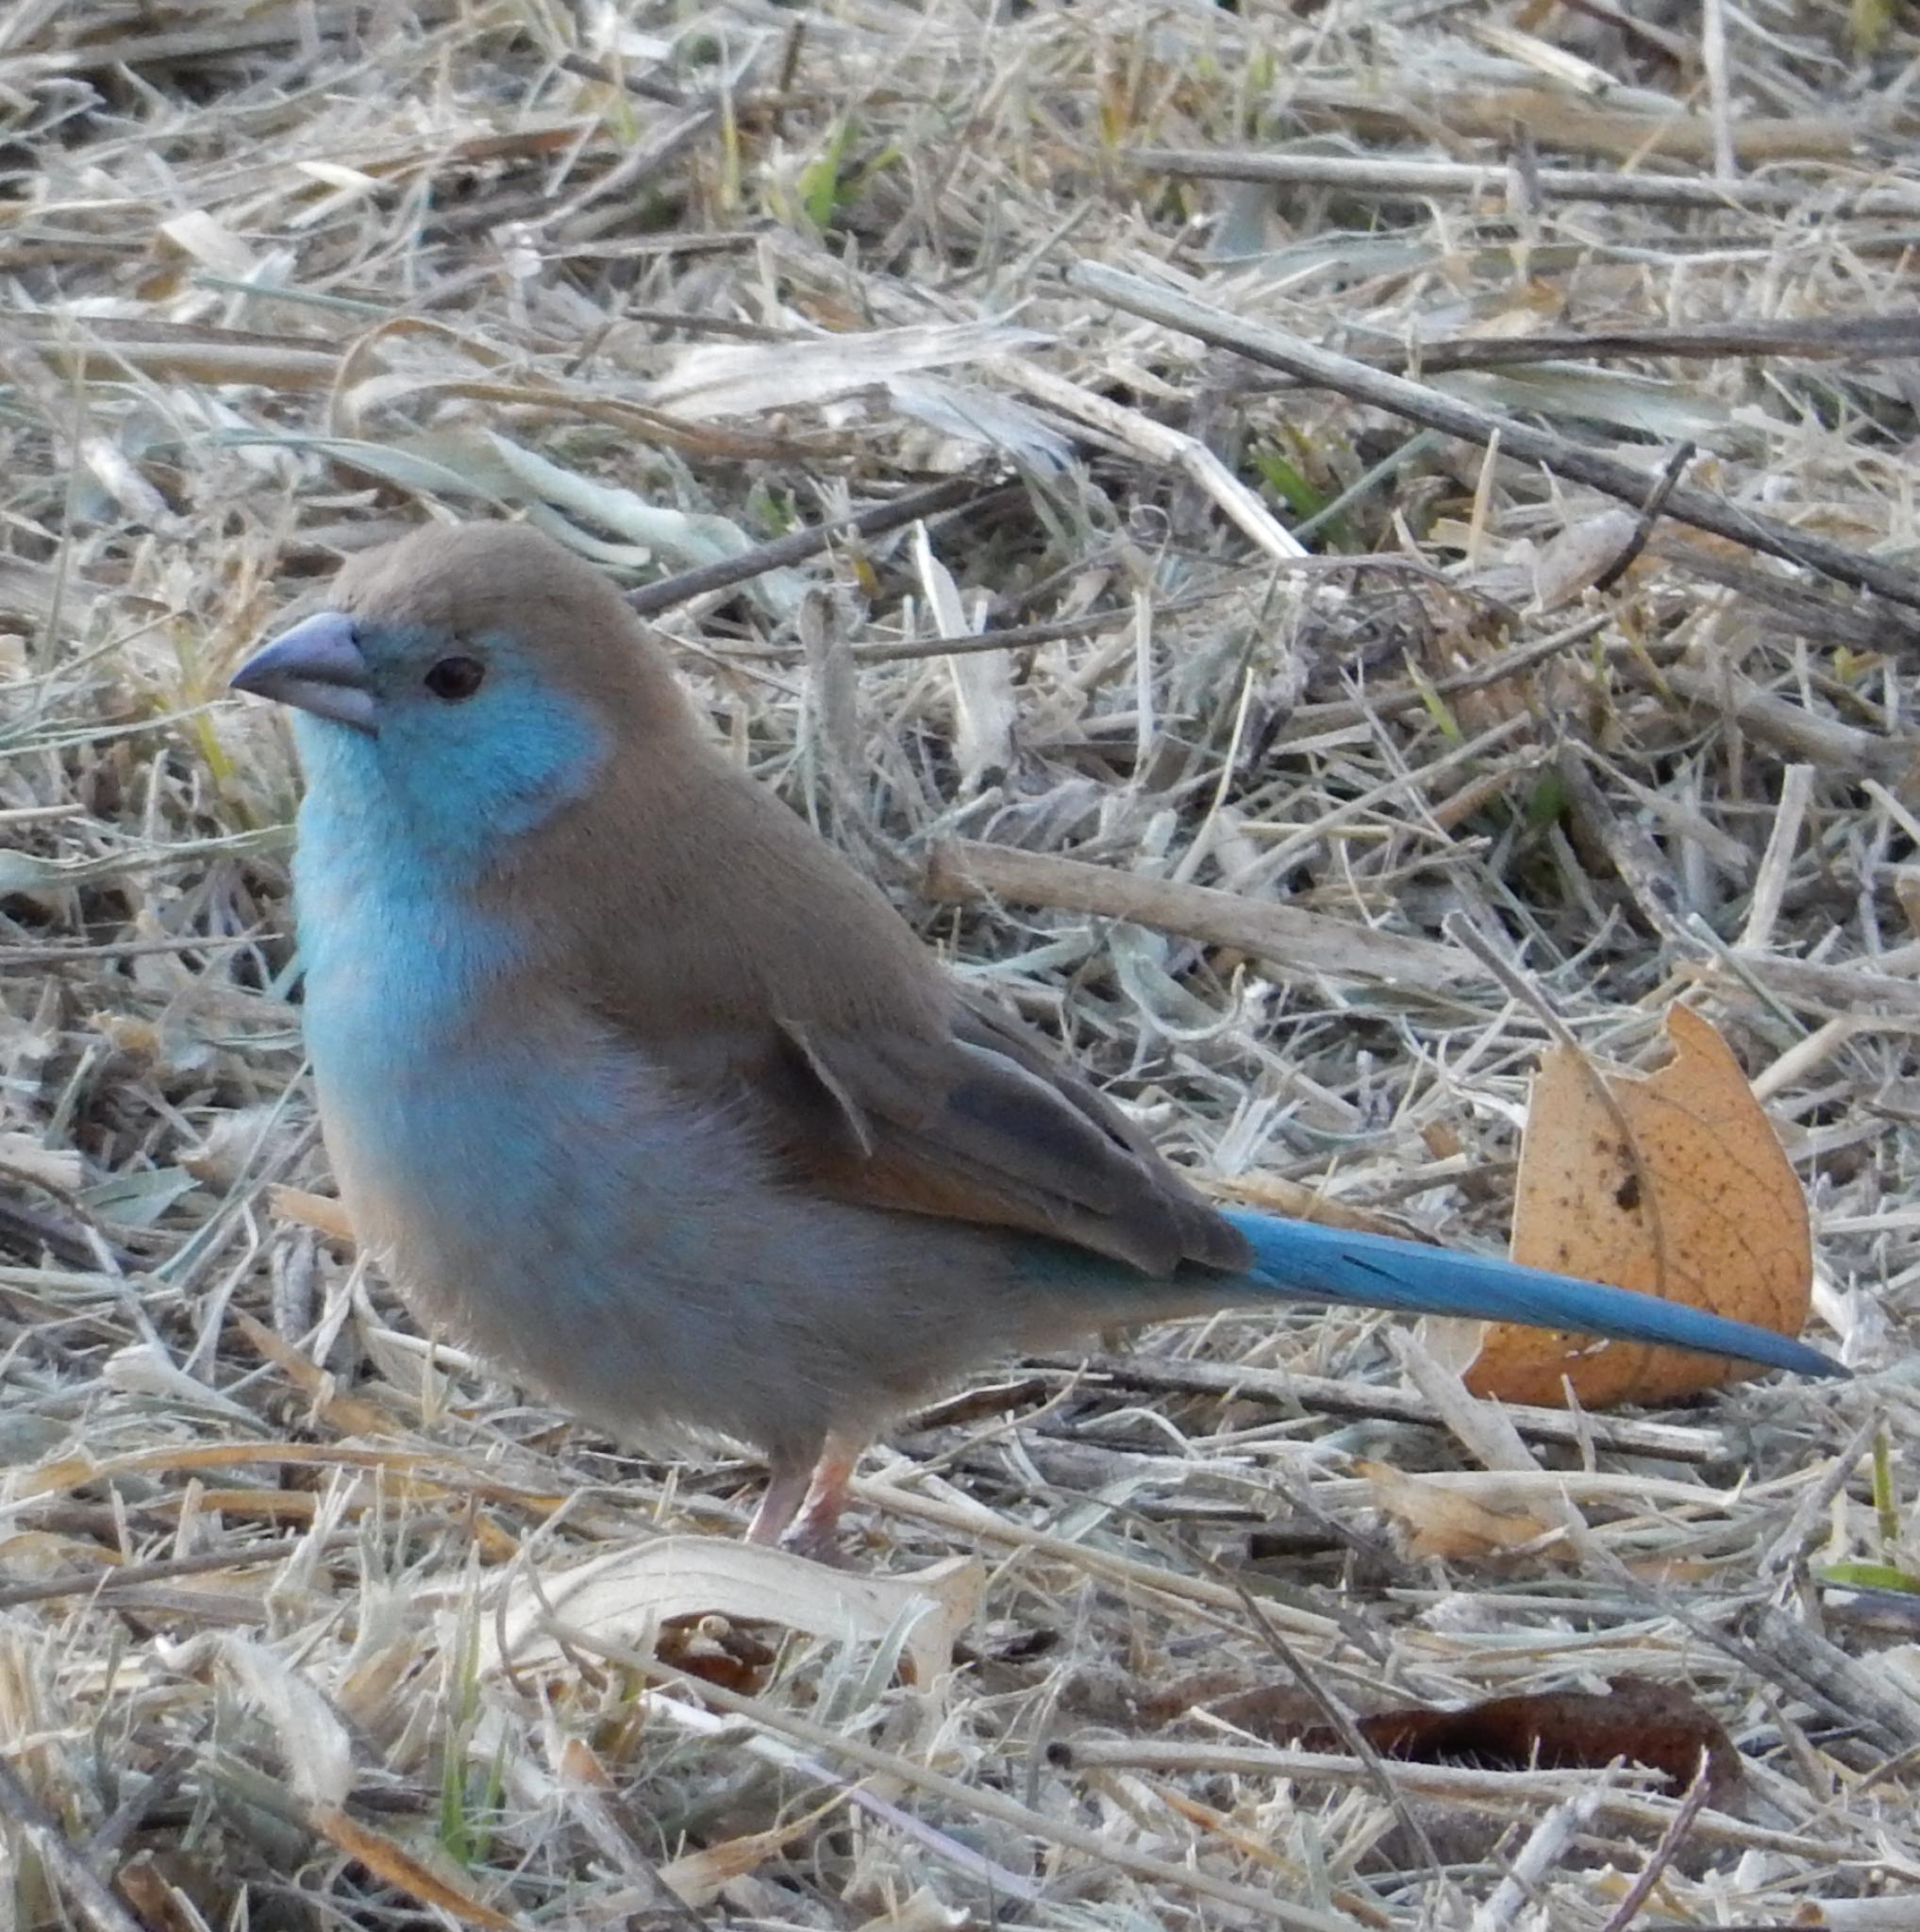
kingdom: Animalia
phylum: Chordata
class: Aves
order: Passeriformes
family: Estrildidae
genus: Uraeginthus
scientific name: Uraeginthus angolensis
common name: Blue waxbill
